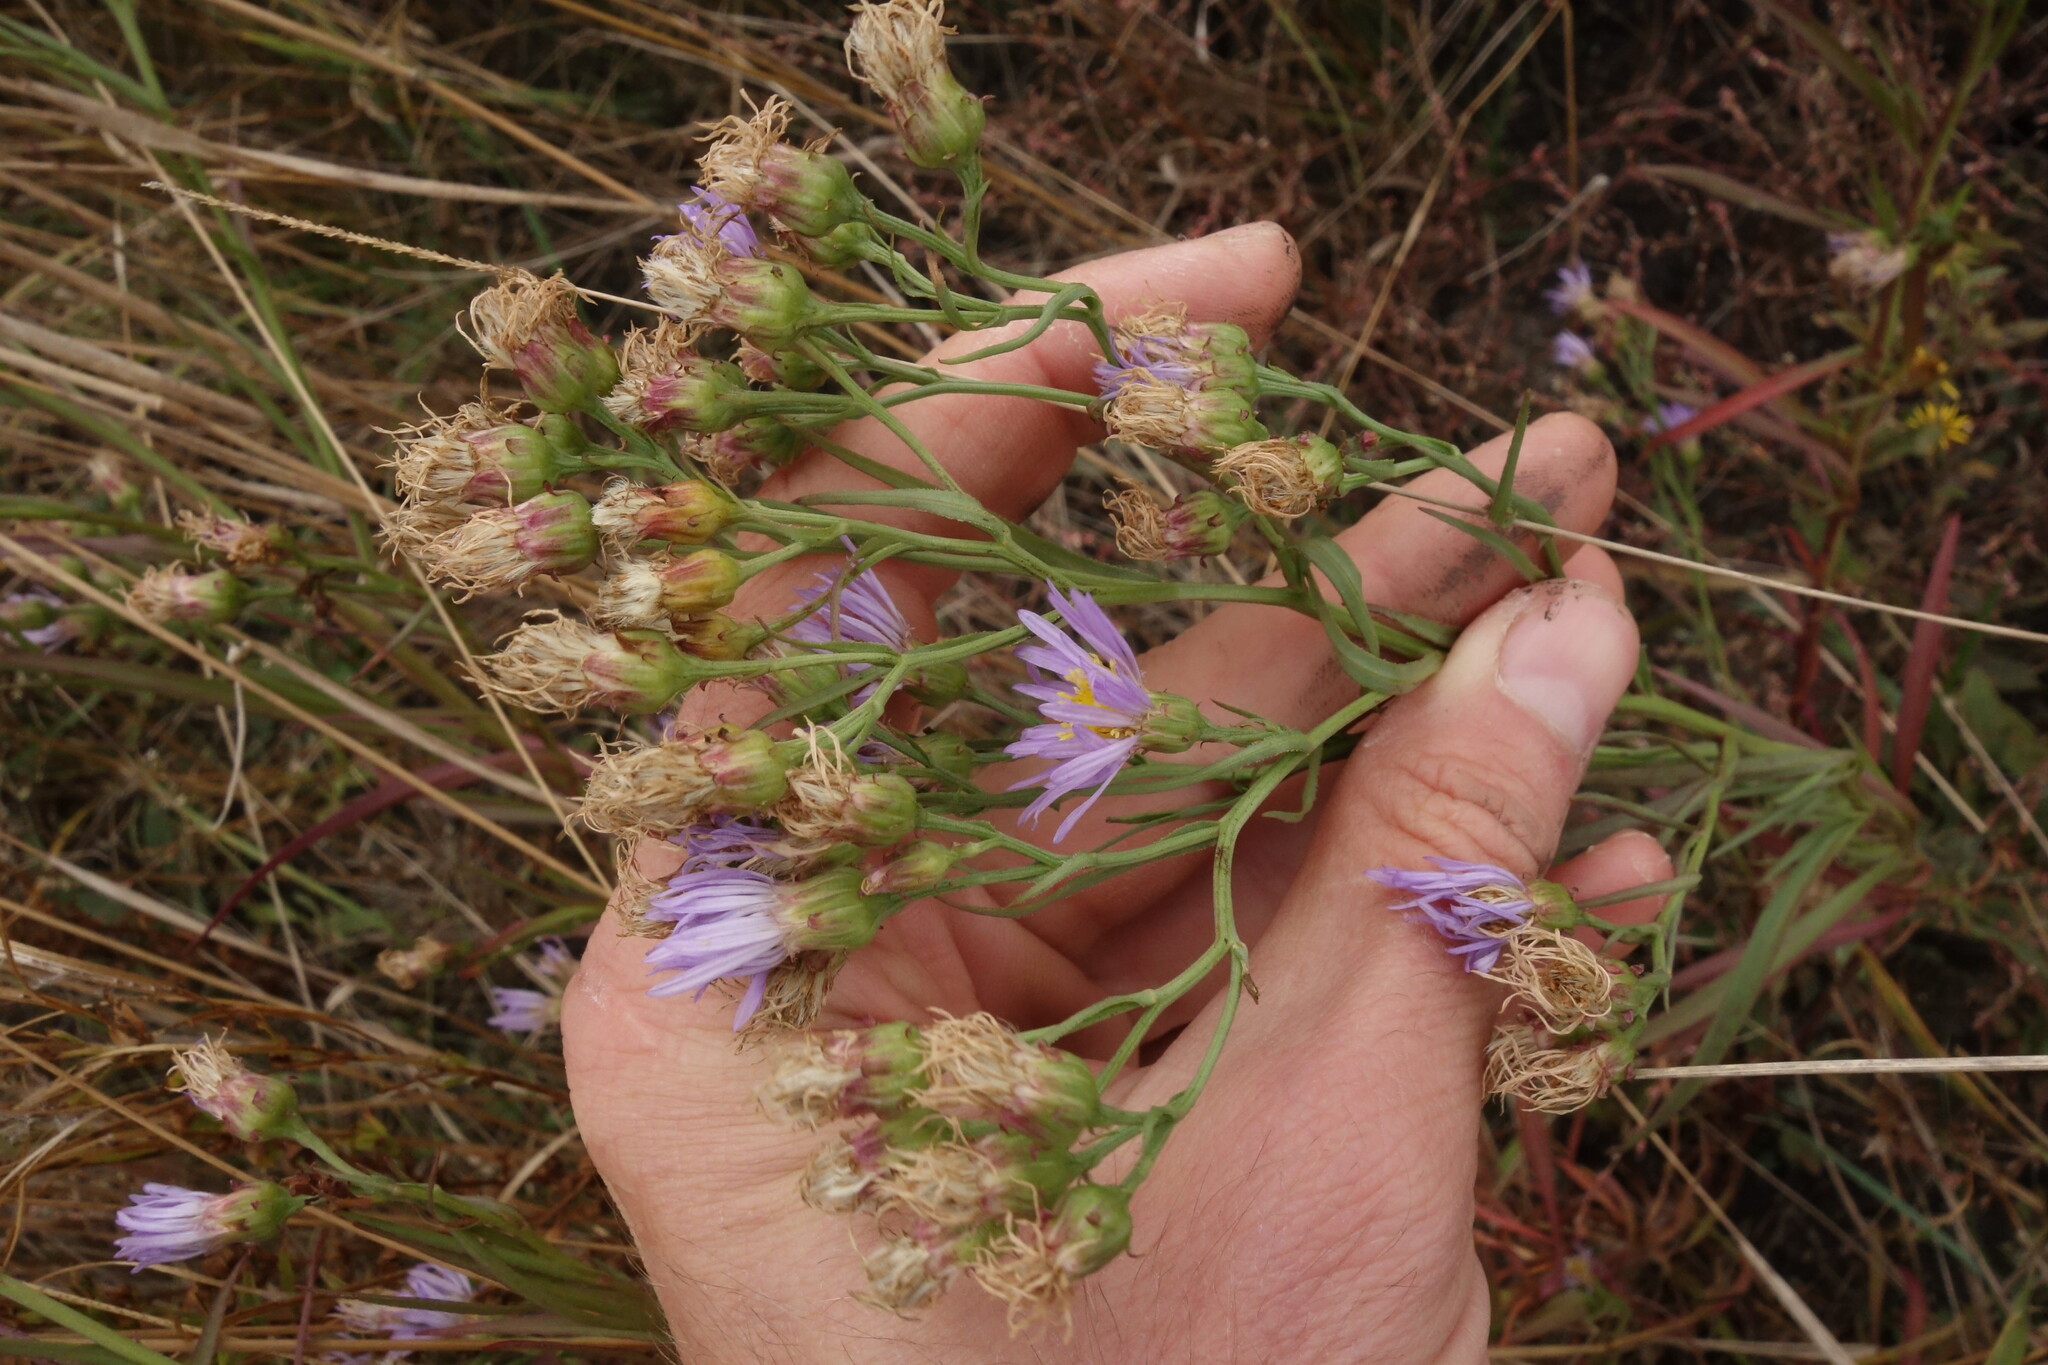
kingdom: Plantae
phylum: Tracheophyta
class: Magnoliopsida
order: Asterales
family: Asteraceae
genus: Tripolium
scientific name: Tripolium pannonicum
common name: Sea aster
